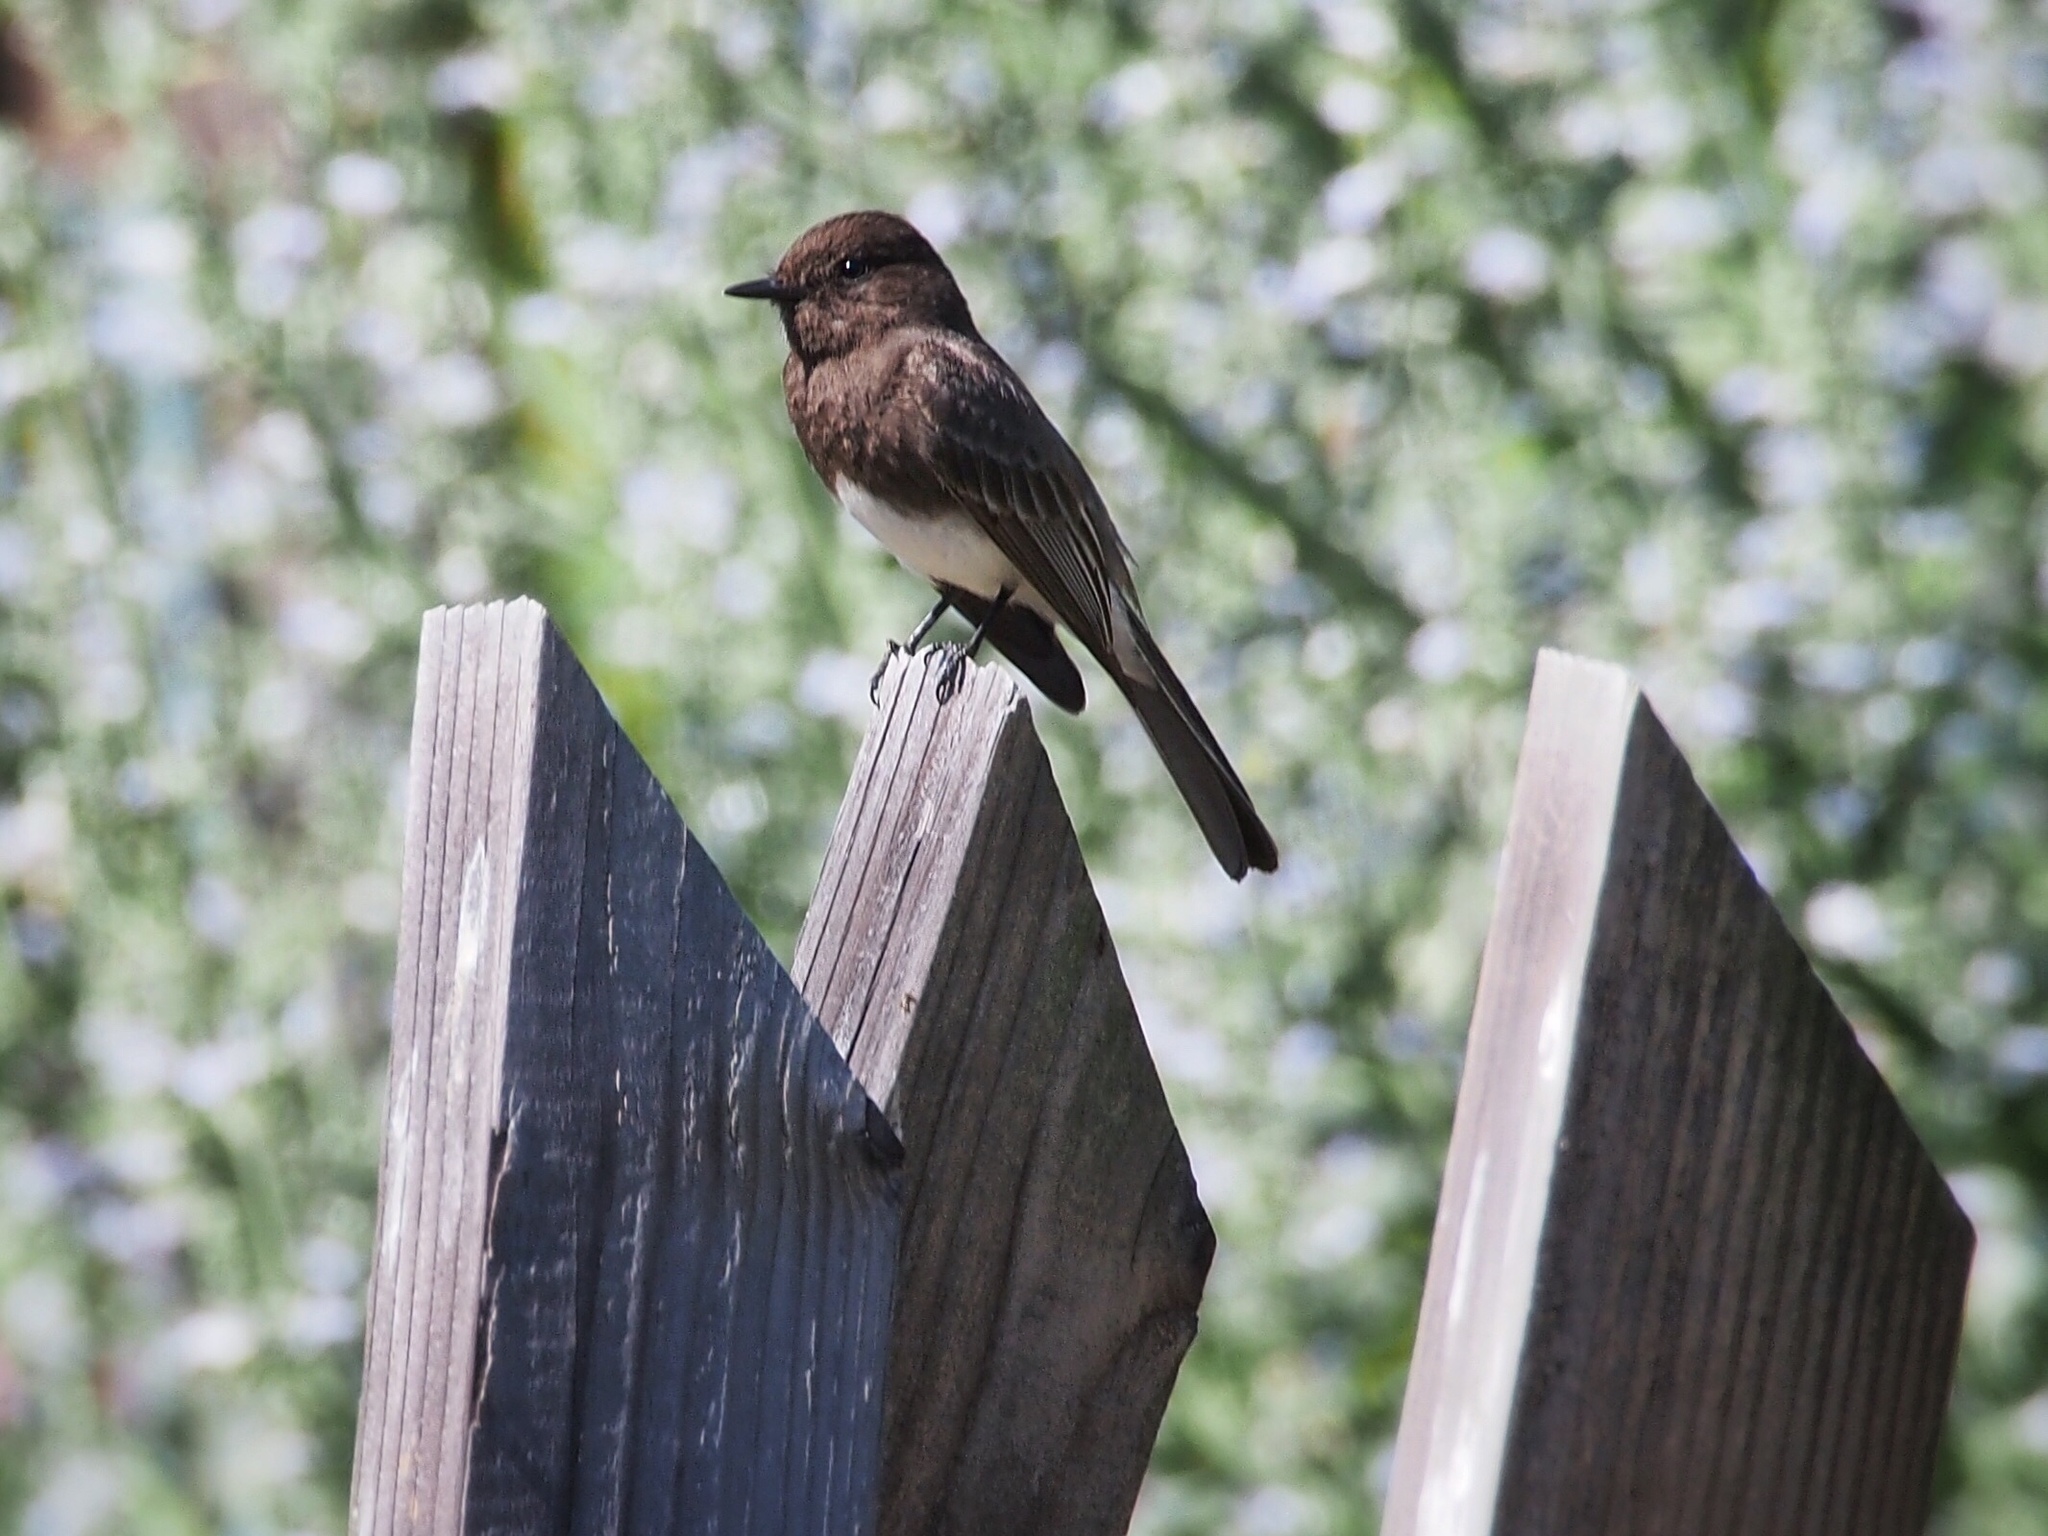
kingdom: Animalia
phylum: Chordata
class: Aves
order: Passeriformes
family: Tyrannidae
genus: Sayornis
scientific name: Sayornis nigricans
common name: Black phoebe
